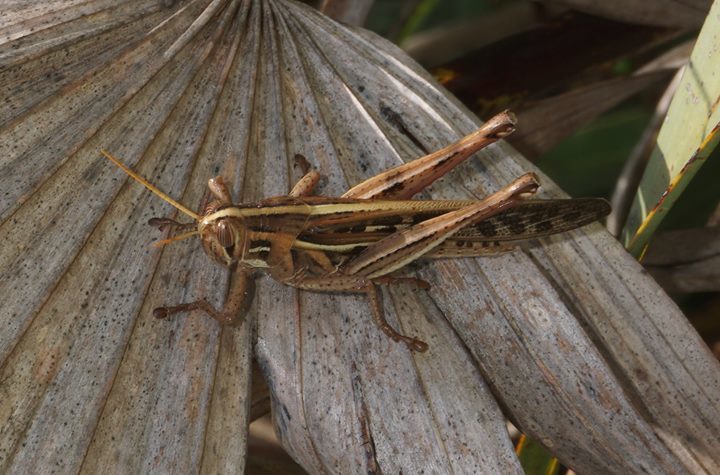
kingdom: Animalia
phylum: Arthropoda
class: Insecta
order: Orthoptera
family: Acrididae
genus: Schistocerca
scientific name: Schistocerca americana
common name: American bird locust
